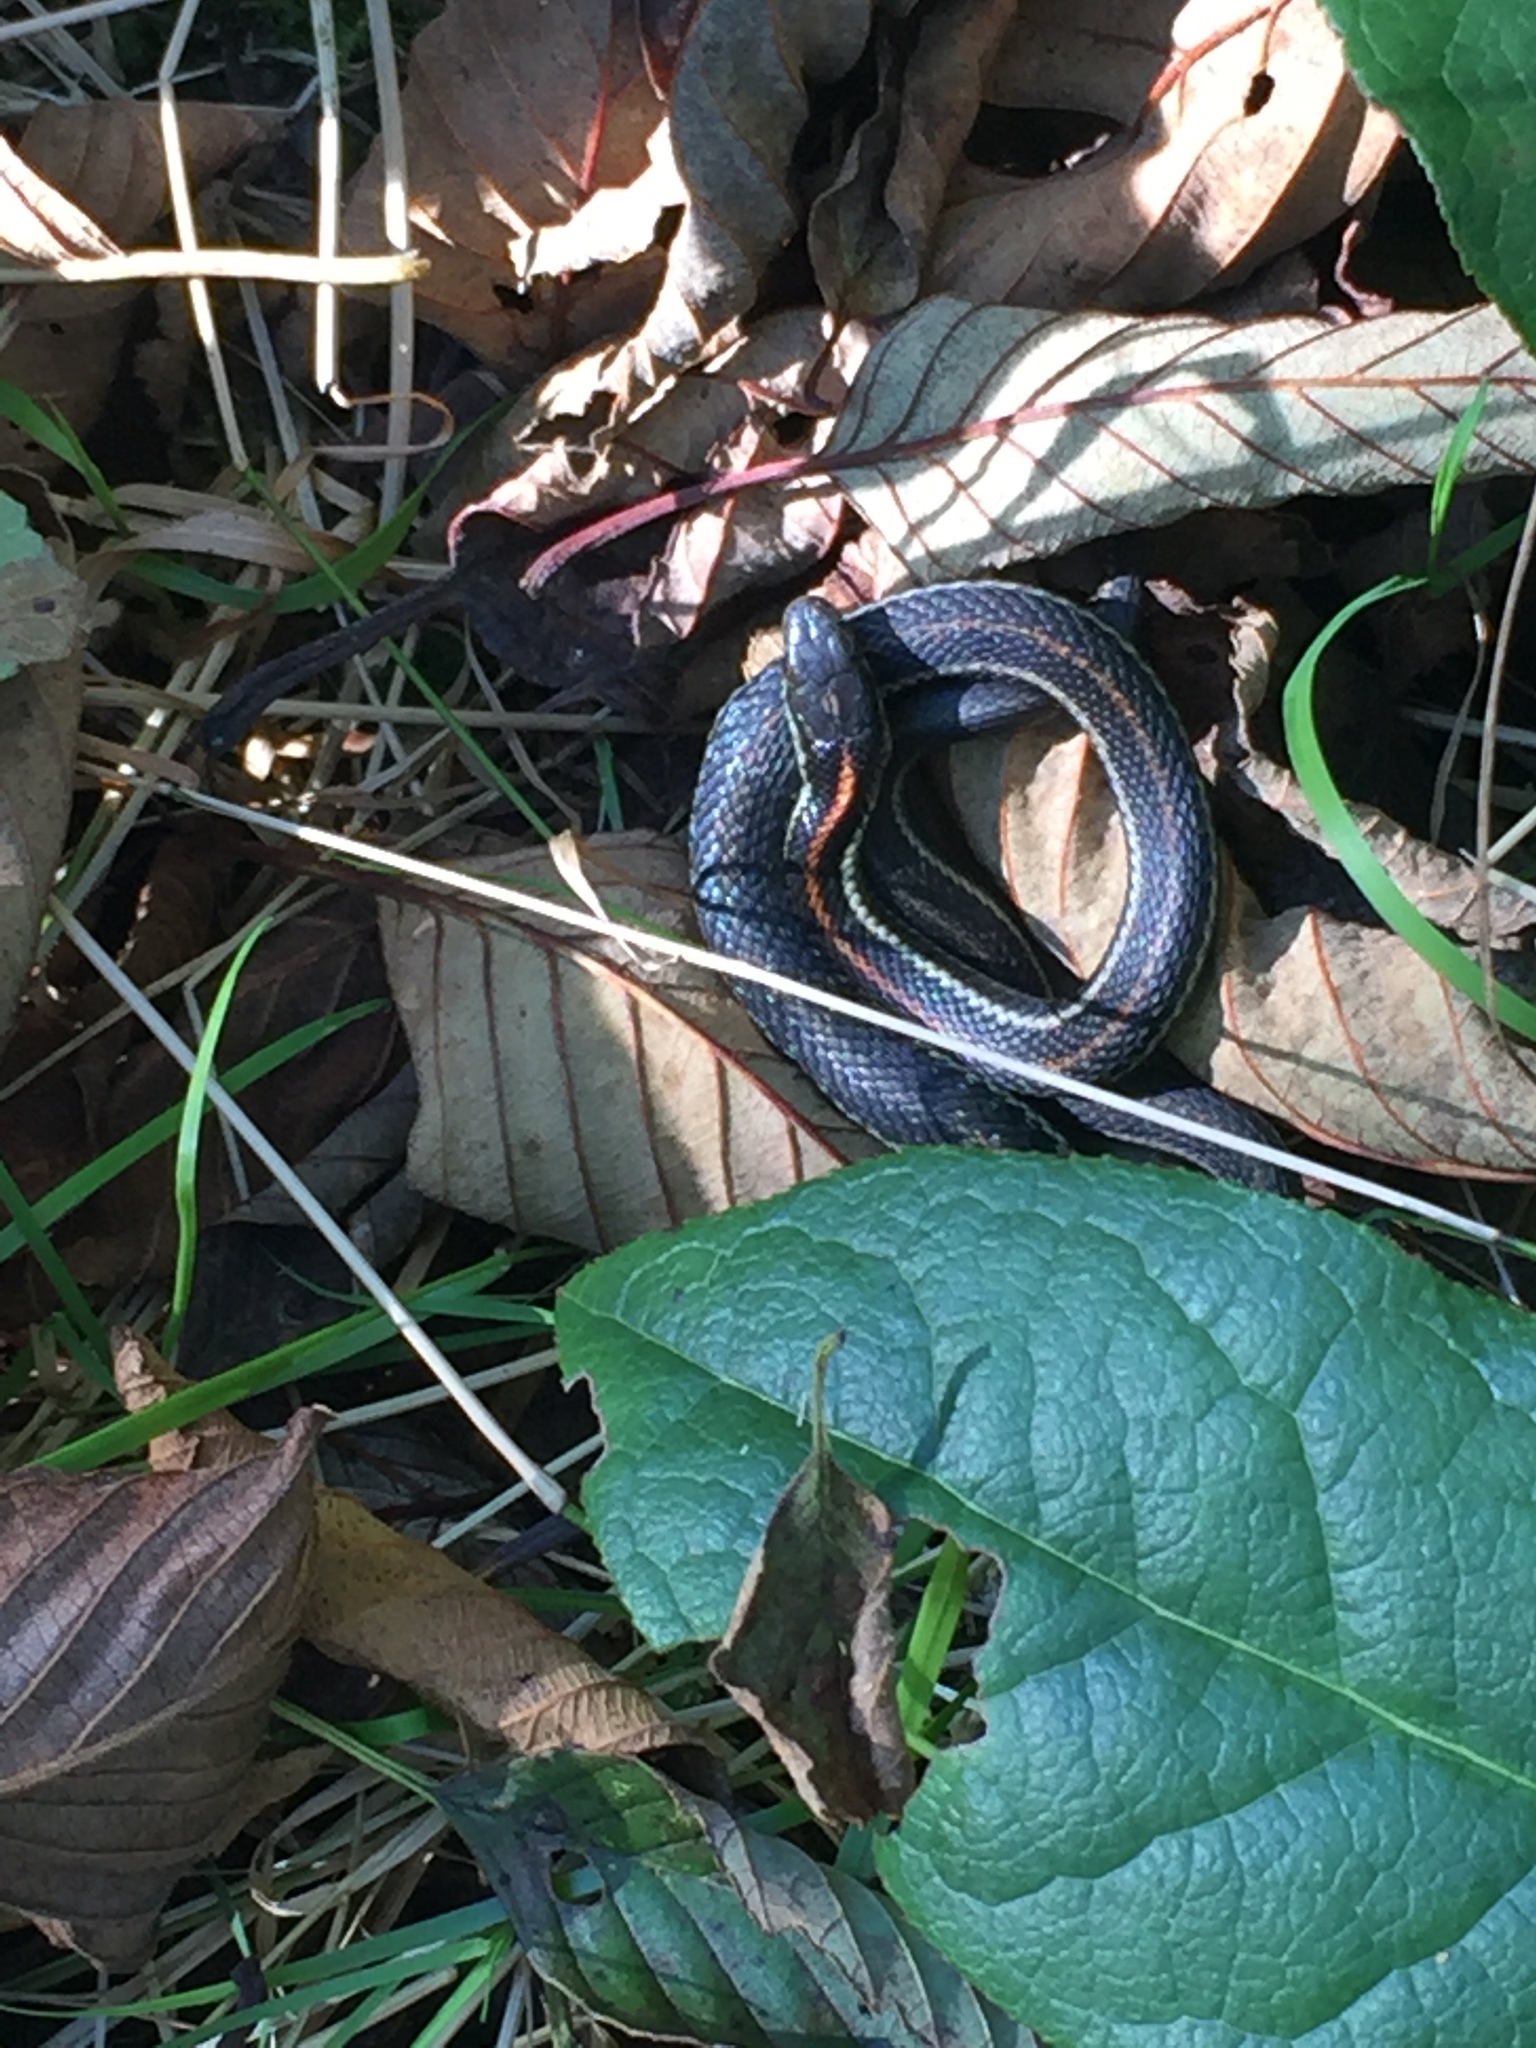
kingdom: Animalia
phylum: Chordata
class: Squamata
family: Colubridae
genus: Thamnophis
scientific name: Thamnophis ordinoides
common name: Northwestern garter snake
